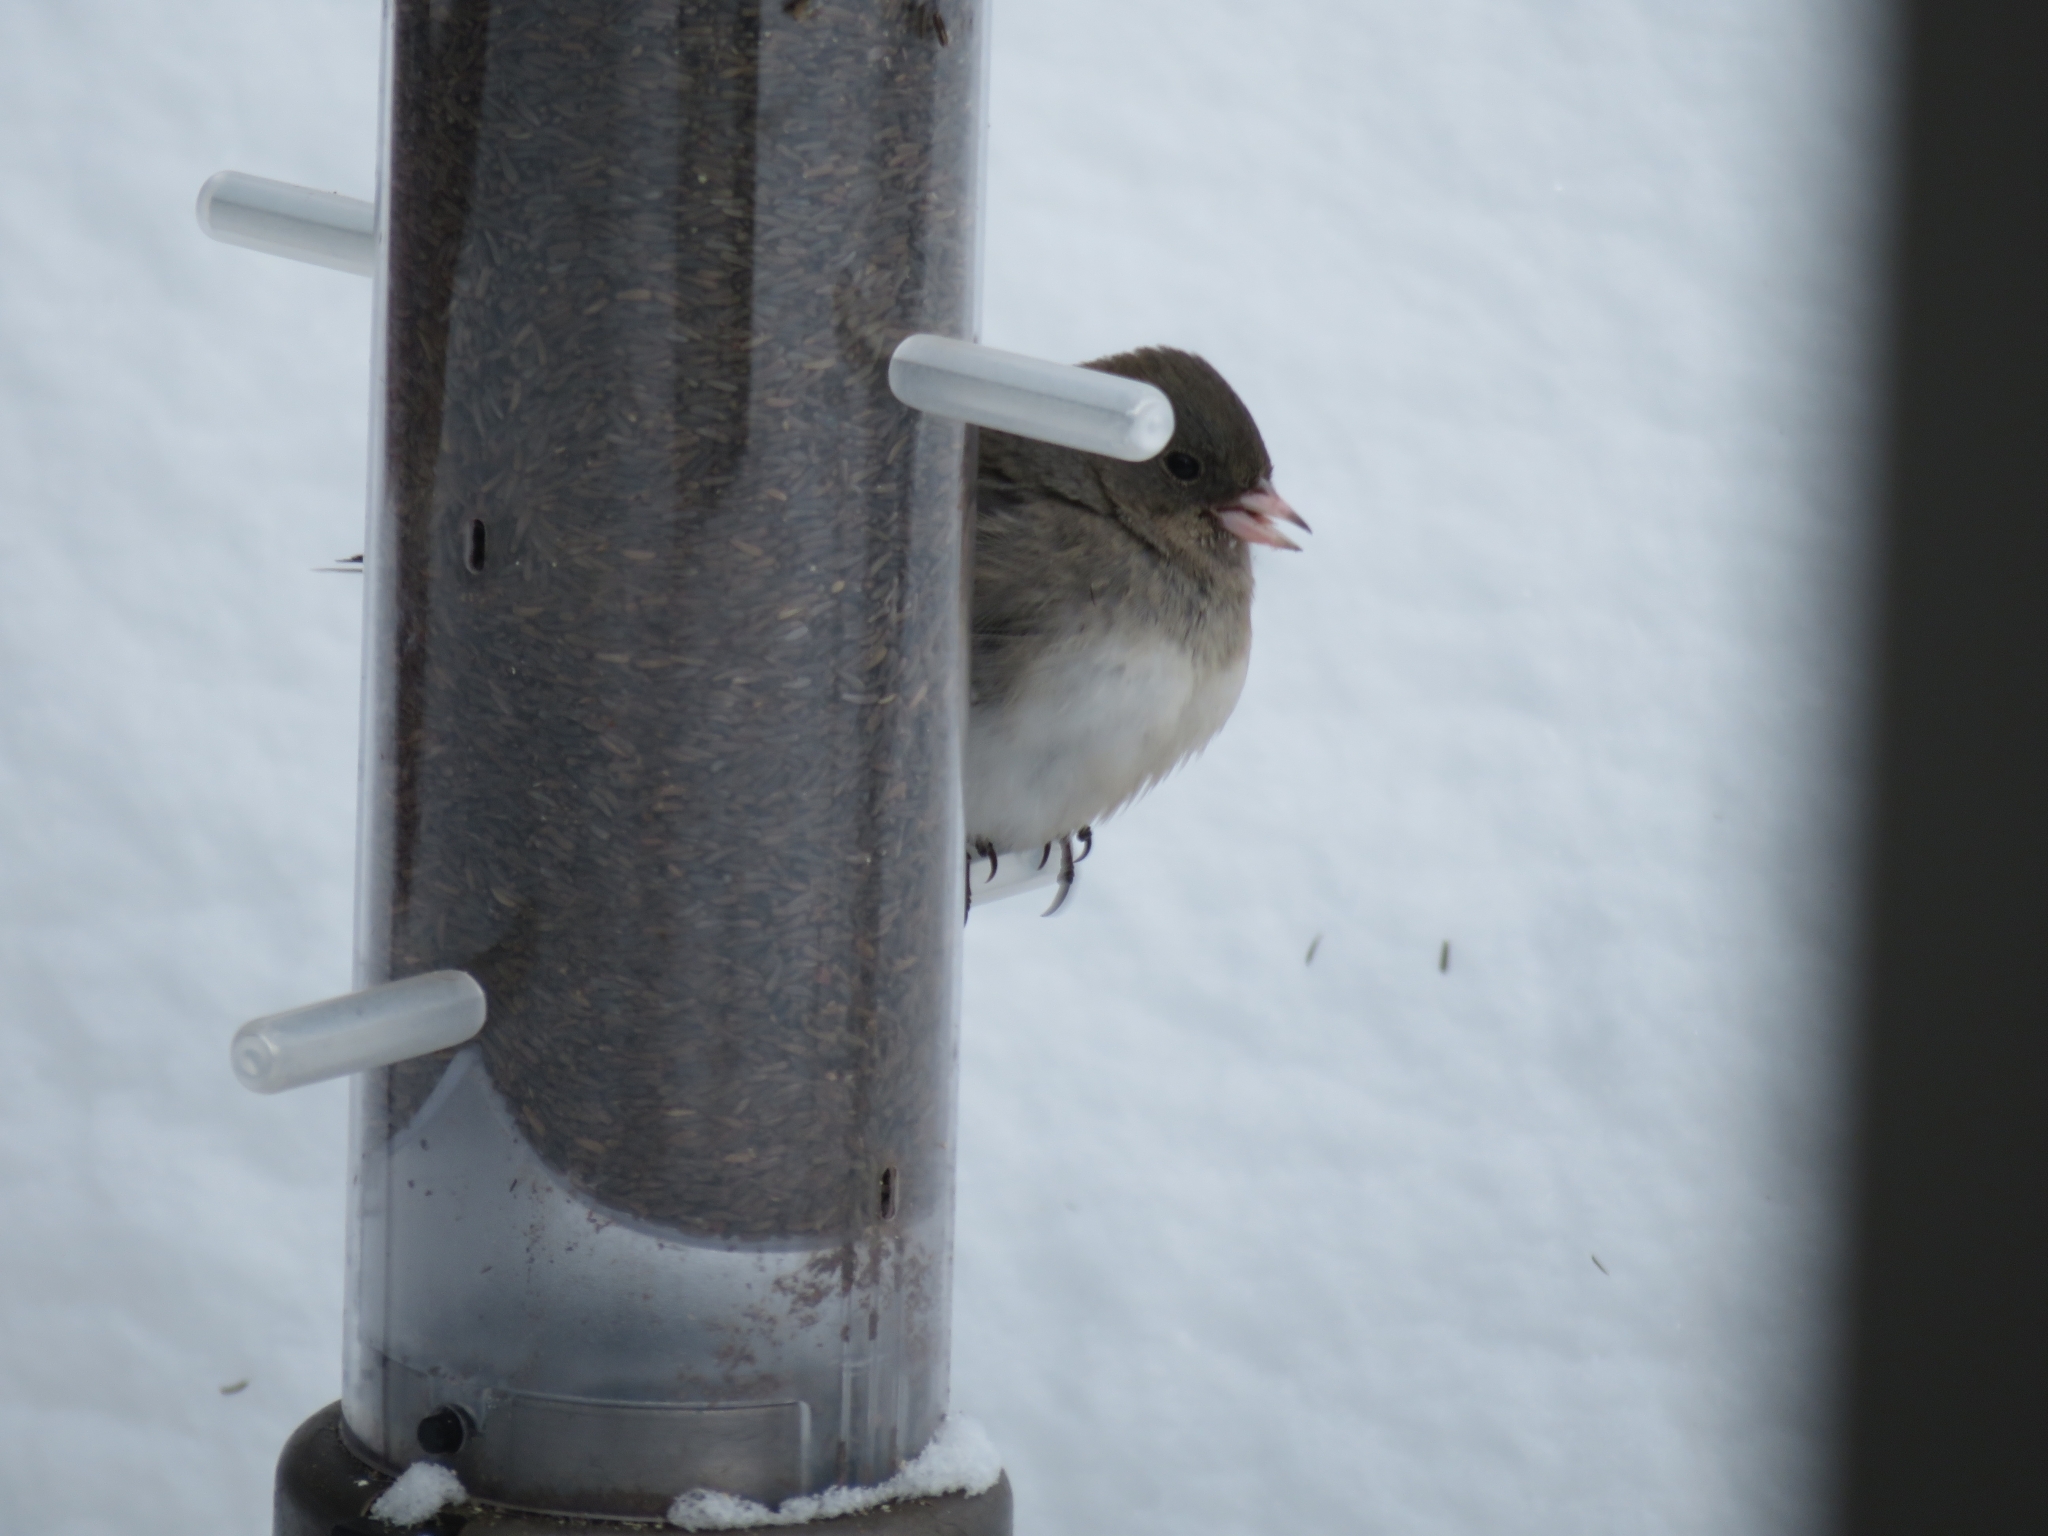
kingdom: Animalia
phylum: Chordata
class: Aves
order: Passeriformes
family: Passerellidae
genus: Junco
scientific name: Junco hyemalis
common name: Dark-eyed junco
